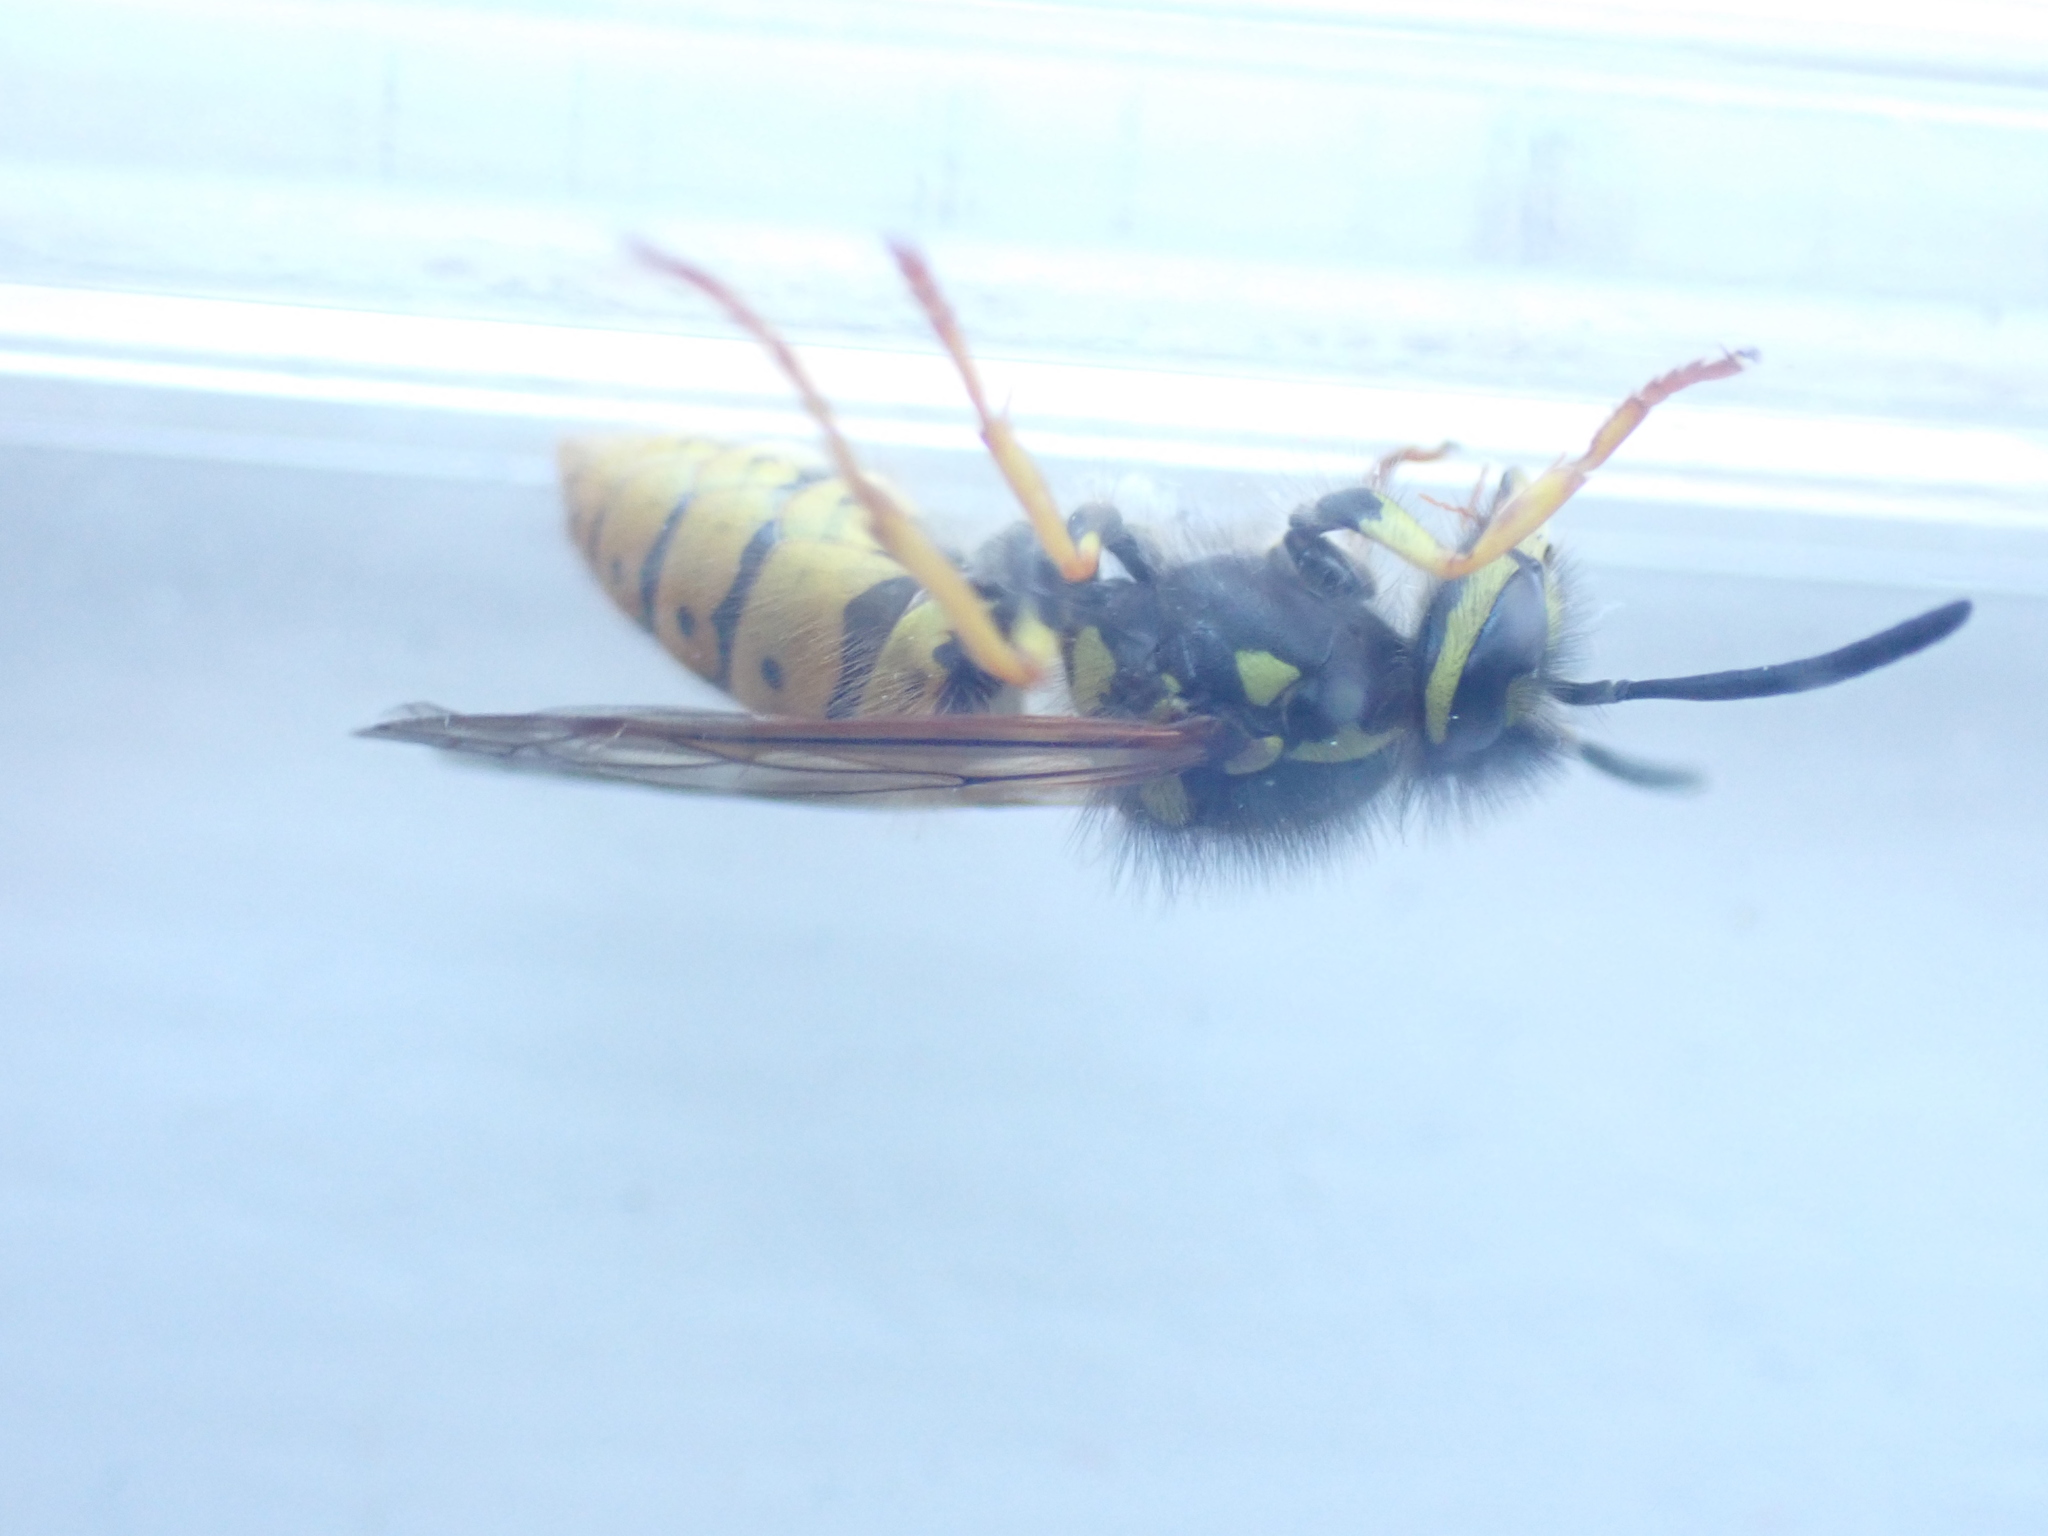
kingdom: Animalia
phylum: Arthropoda
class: Insecta
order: Hymenoptera
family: Vespidae
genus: Vespula
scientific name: Vespula germanica
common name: German wasp
